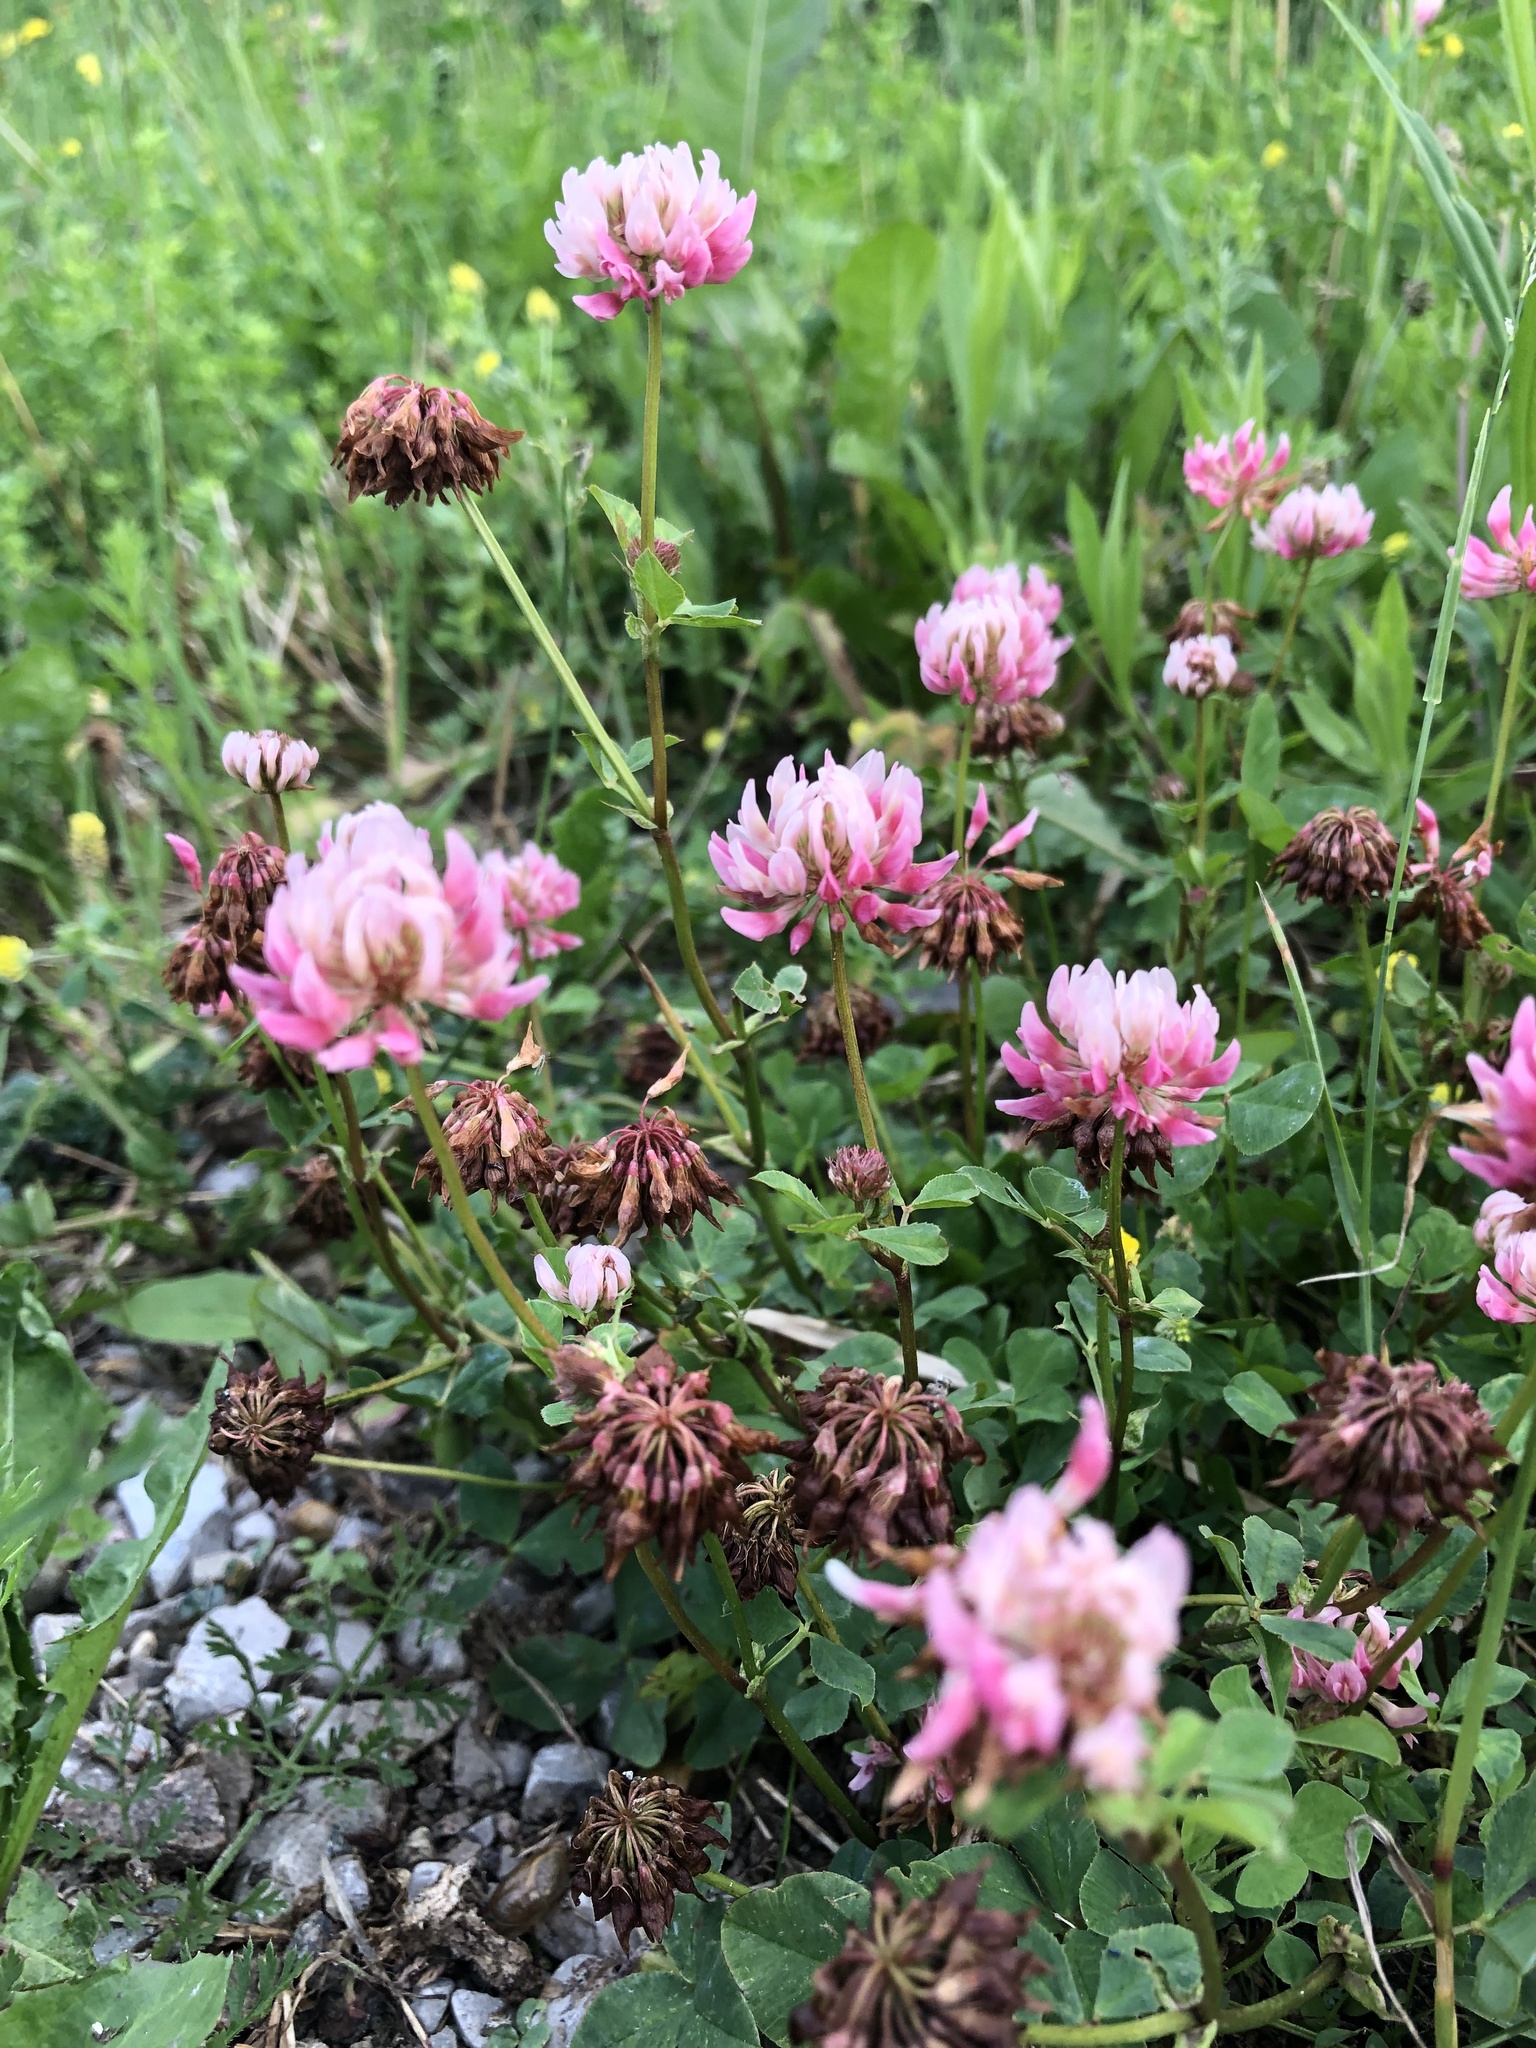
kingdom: Plantae
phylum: Tracheophyta
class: Magnoliopsida
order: Fabales
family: Fabaceae
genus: Trifolium
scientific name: Trifolium hybridum
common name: Alsike clover
